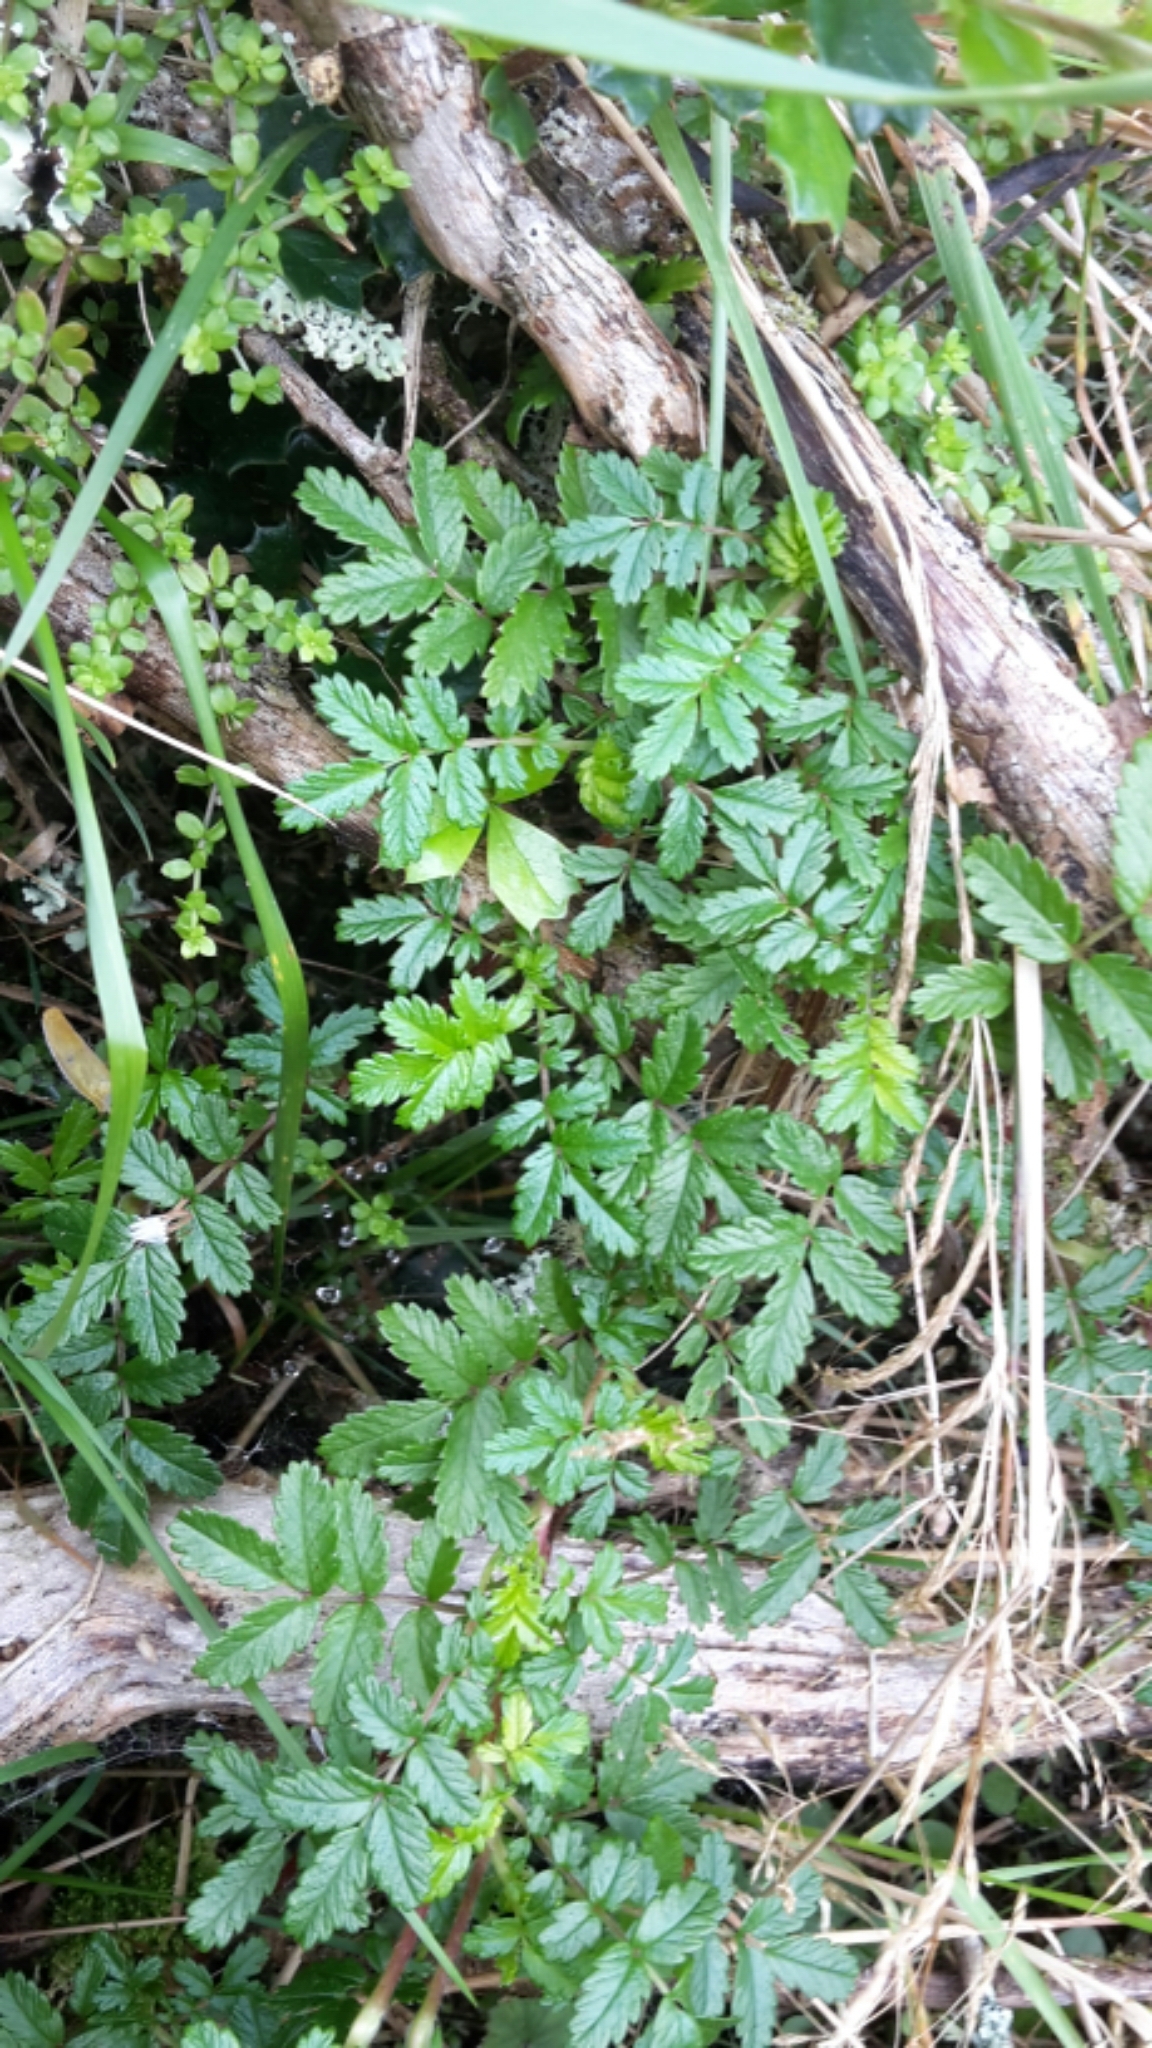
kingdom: Plantae
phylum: Tracheophyta
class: Magnoliopsida
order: Rosales
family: Rosaceae
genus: Acaena
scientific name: Acaena novae-zelandiae
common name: Pirri-pirri-bur
